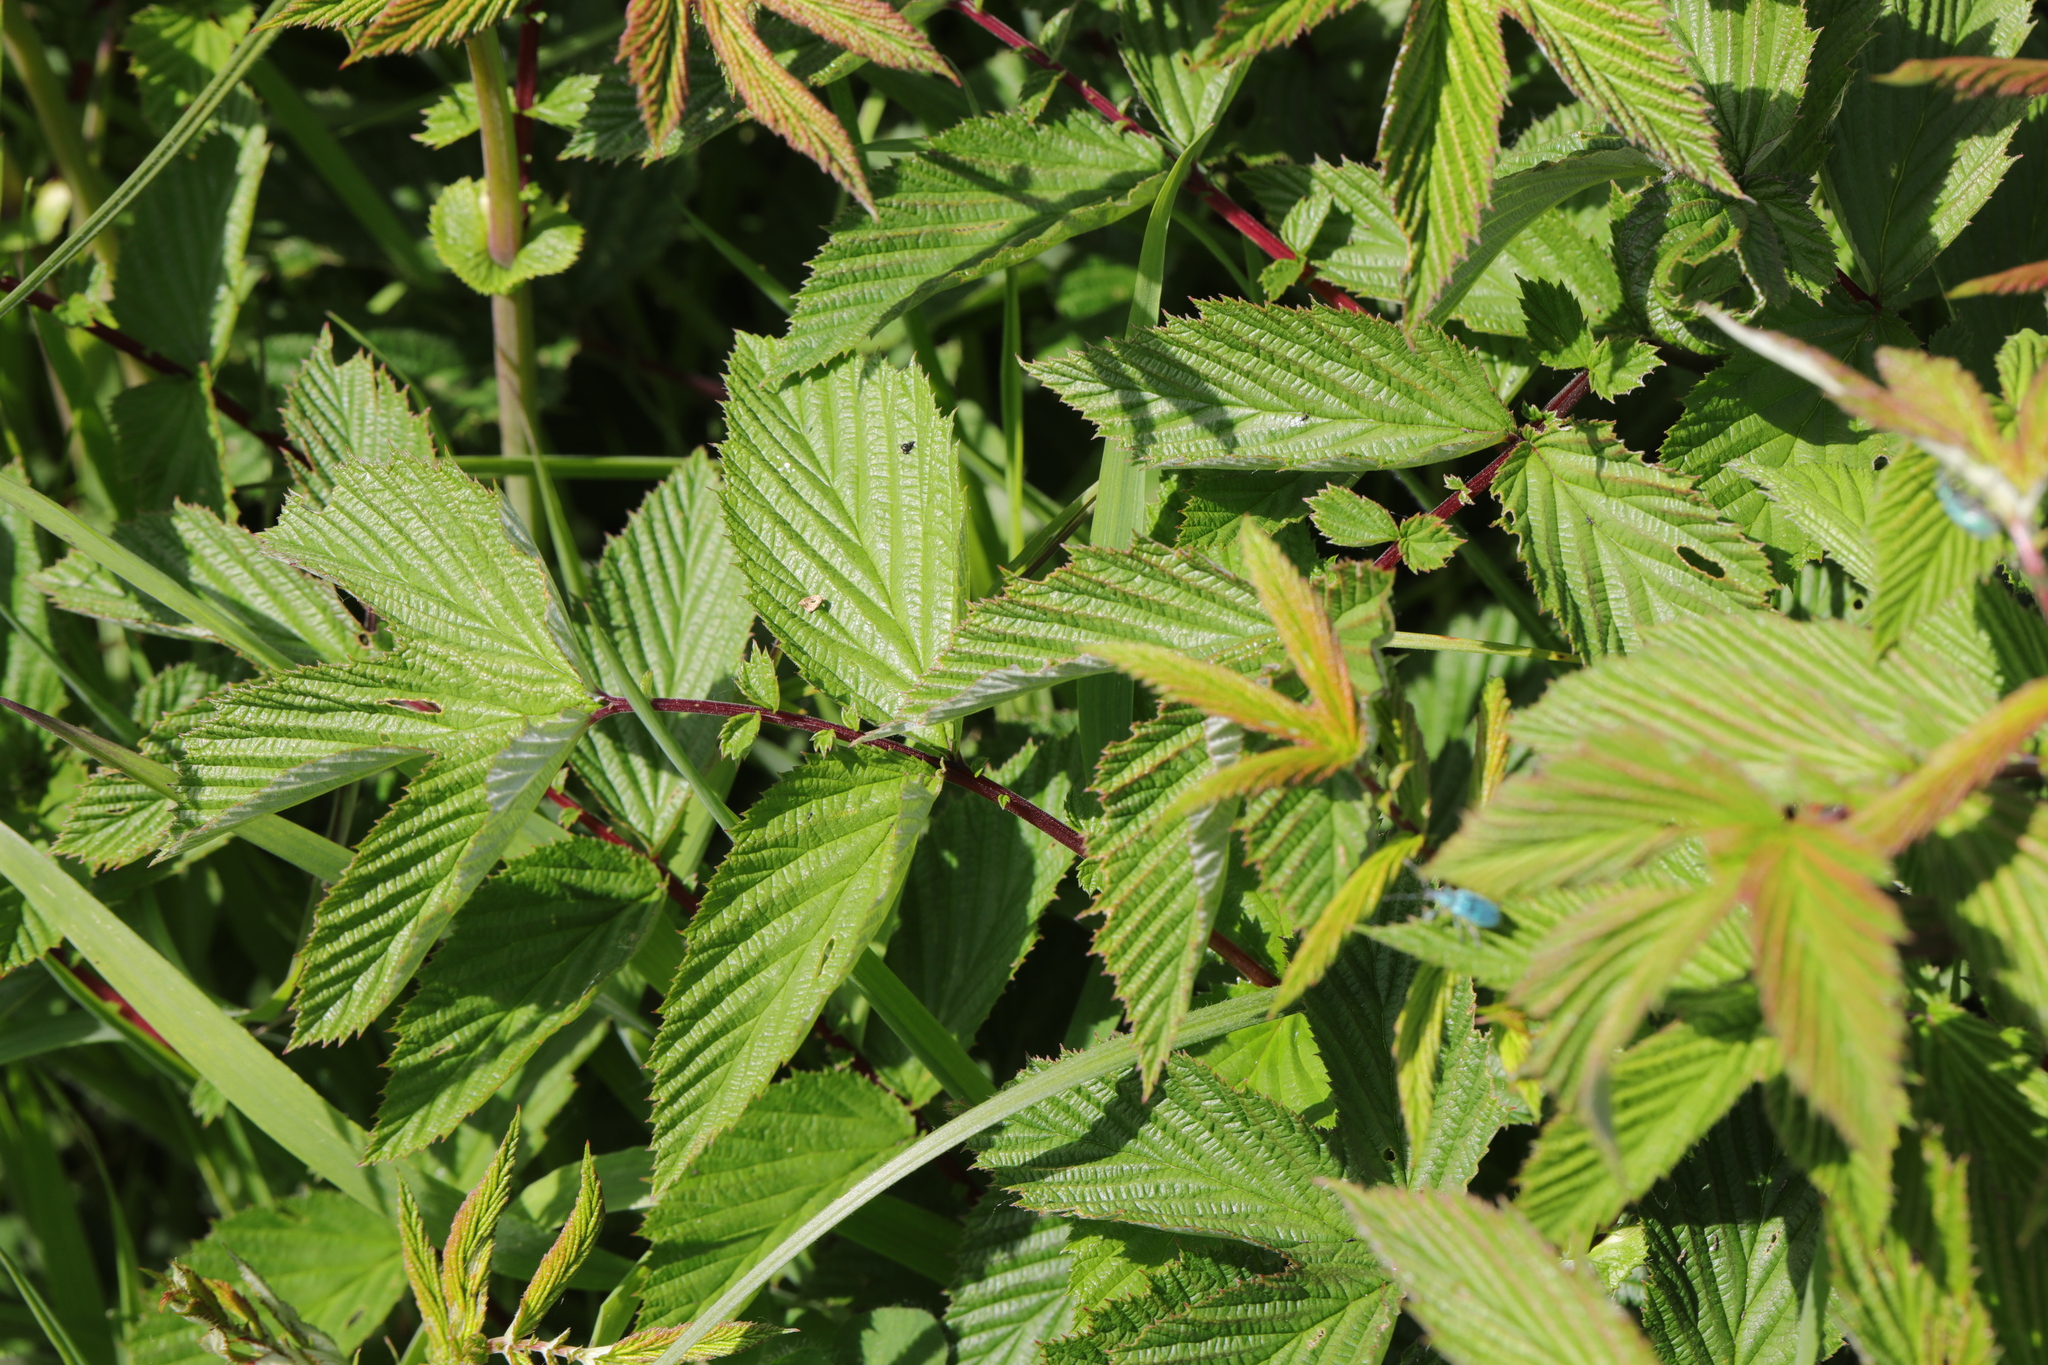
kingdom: Plantae
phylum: Tracheophyta
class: Magnoliopsida
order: Rosales
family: Rosaceae
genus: Filipendula
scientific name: Filipendula ulmaria
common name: Meadowsweet
